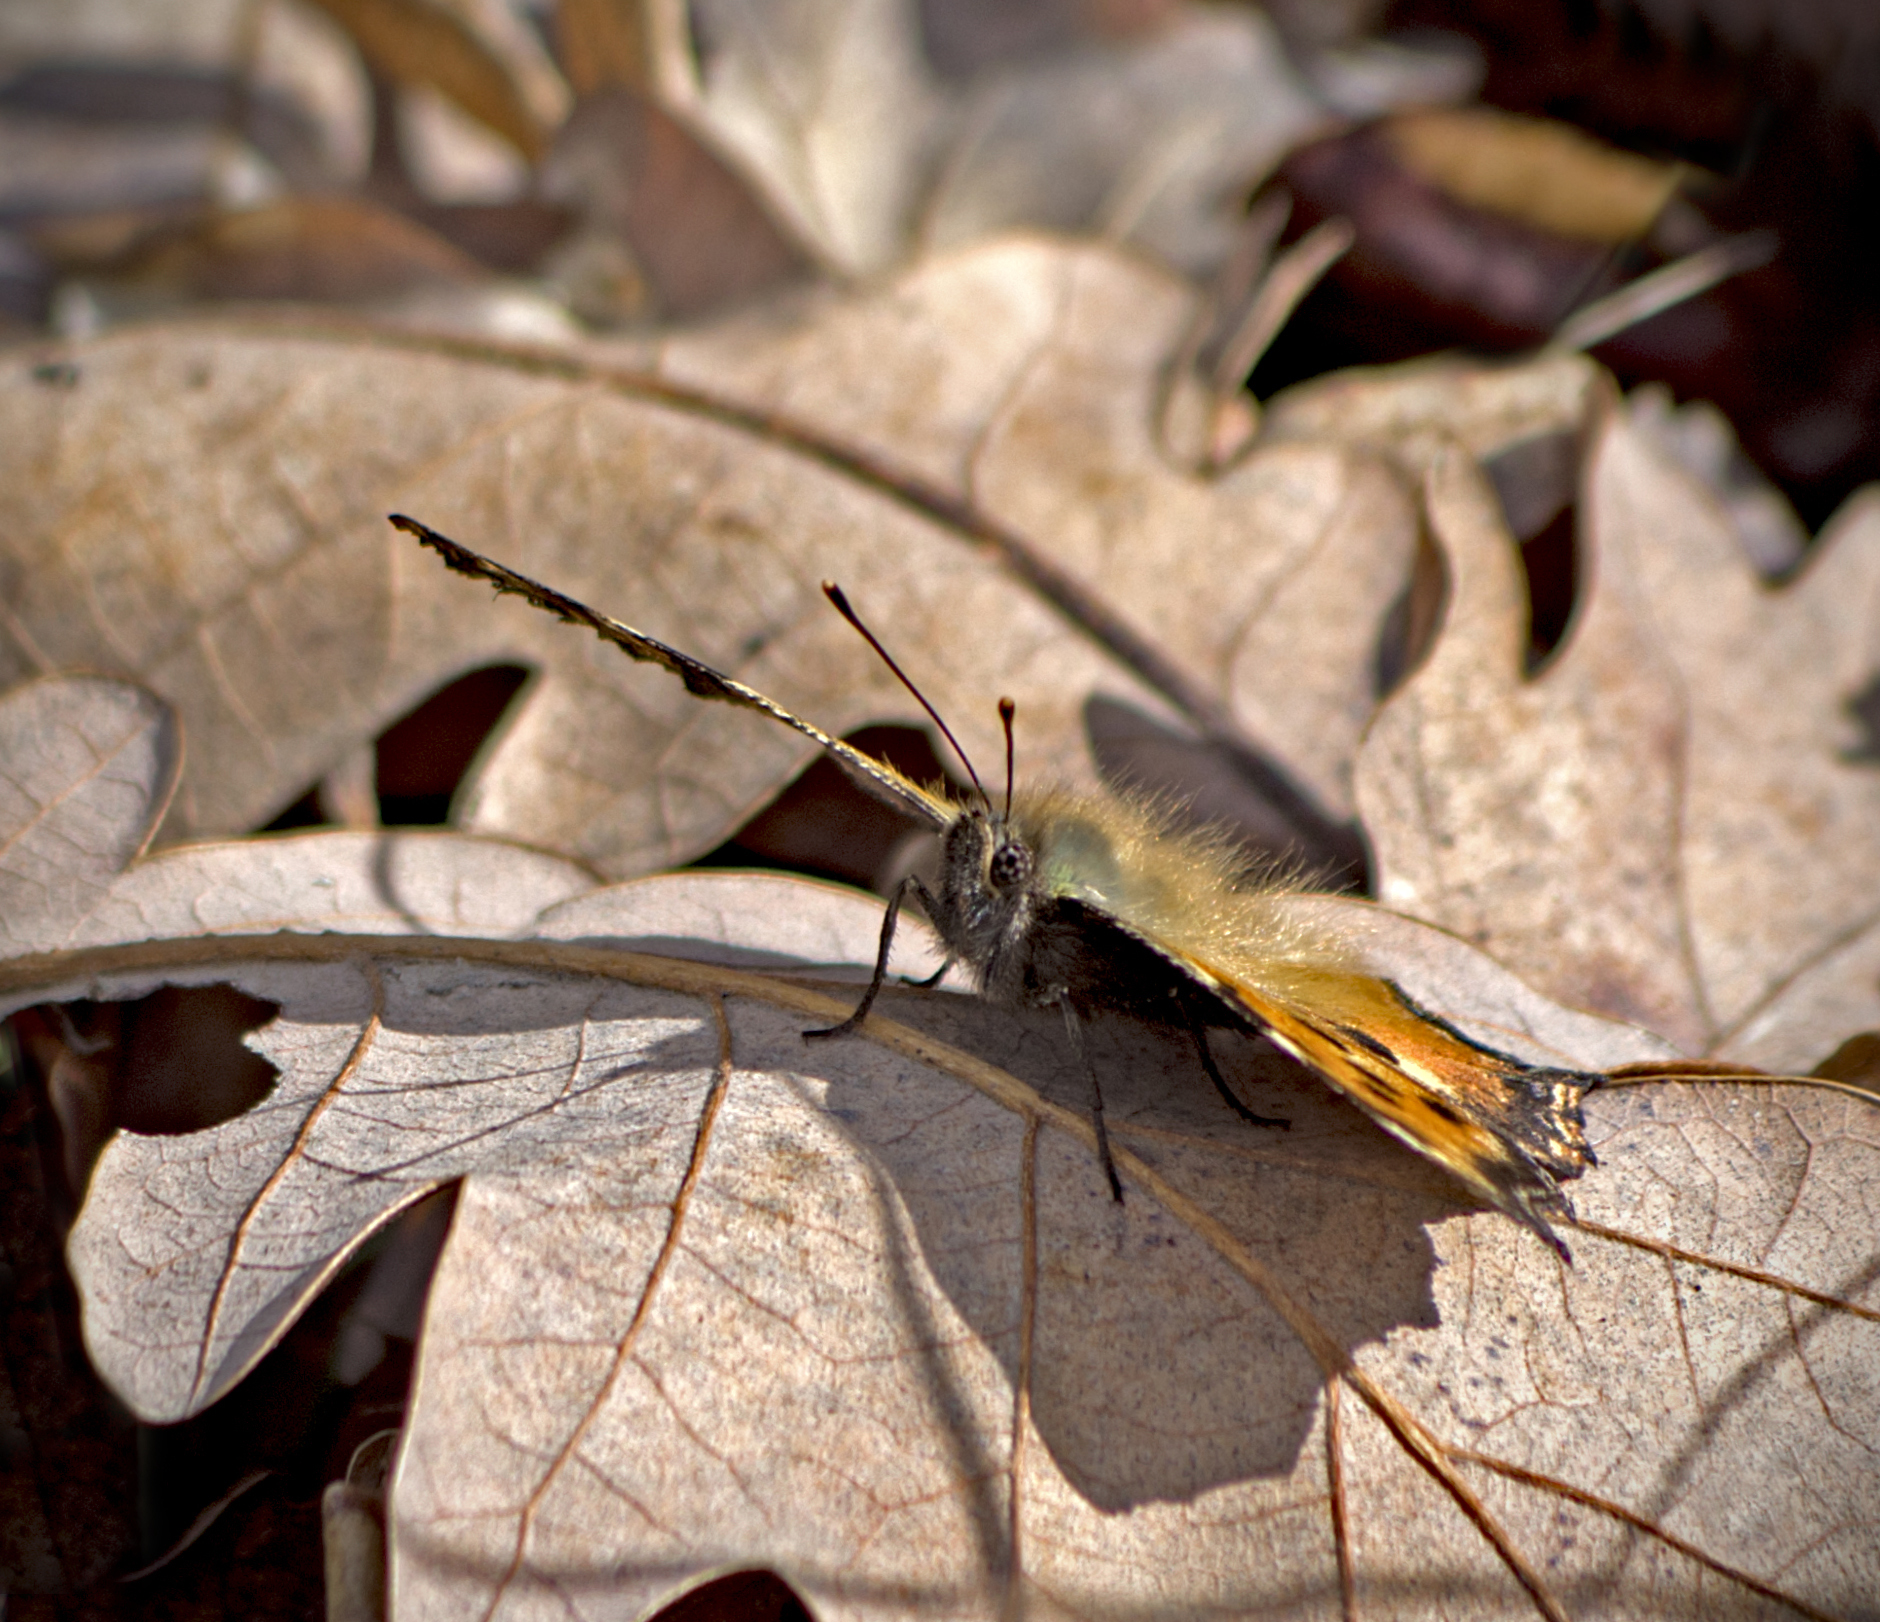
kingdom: Animalia
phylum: Arthropoda
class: Insecta
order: Lepidoptera
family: Nymphalidae
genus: Nymphalis
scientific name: Nymphalis polychloros
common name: Large tortoiseshell
